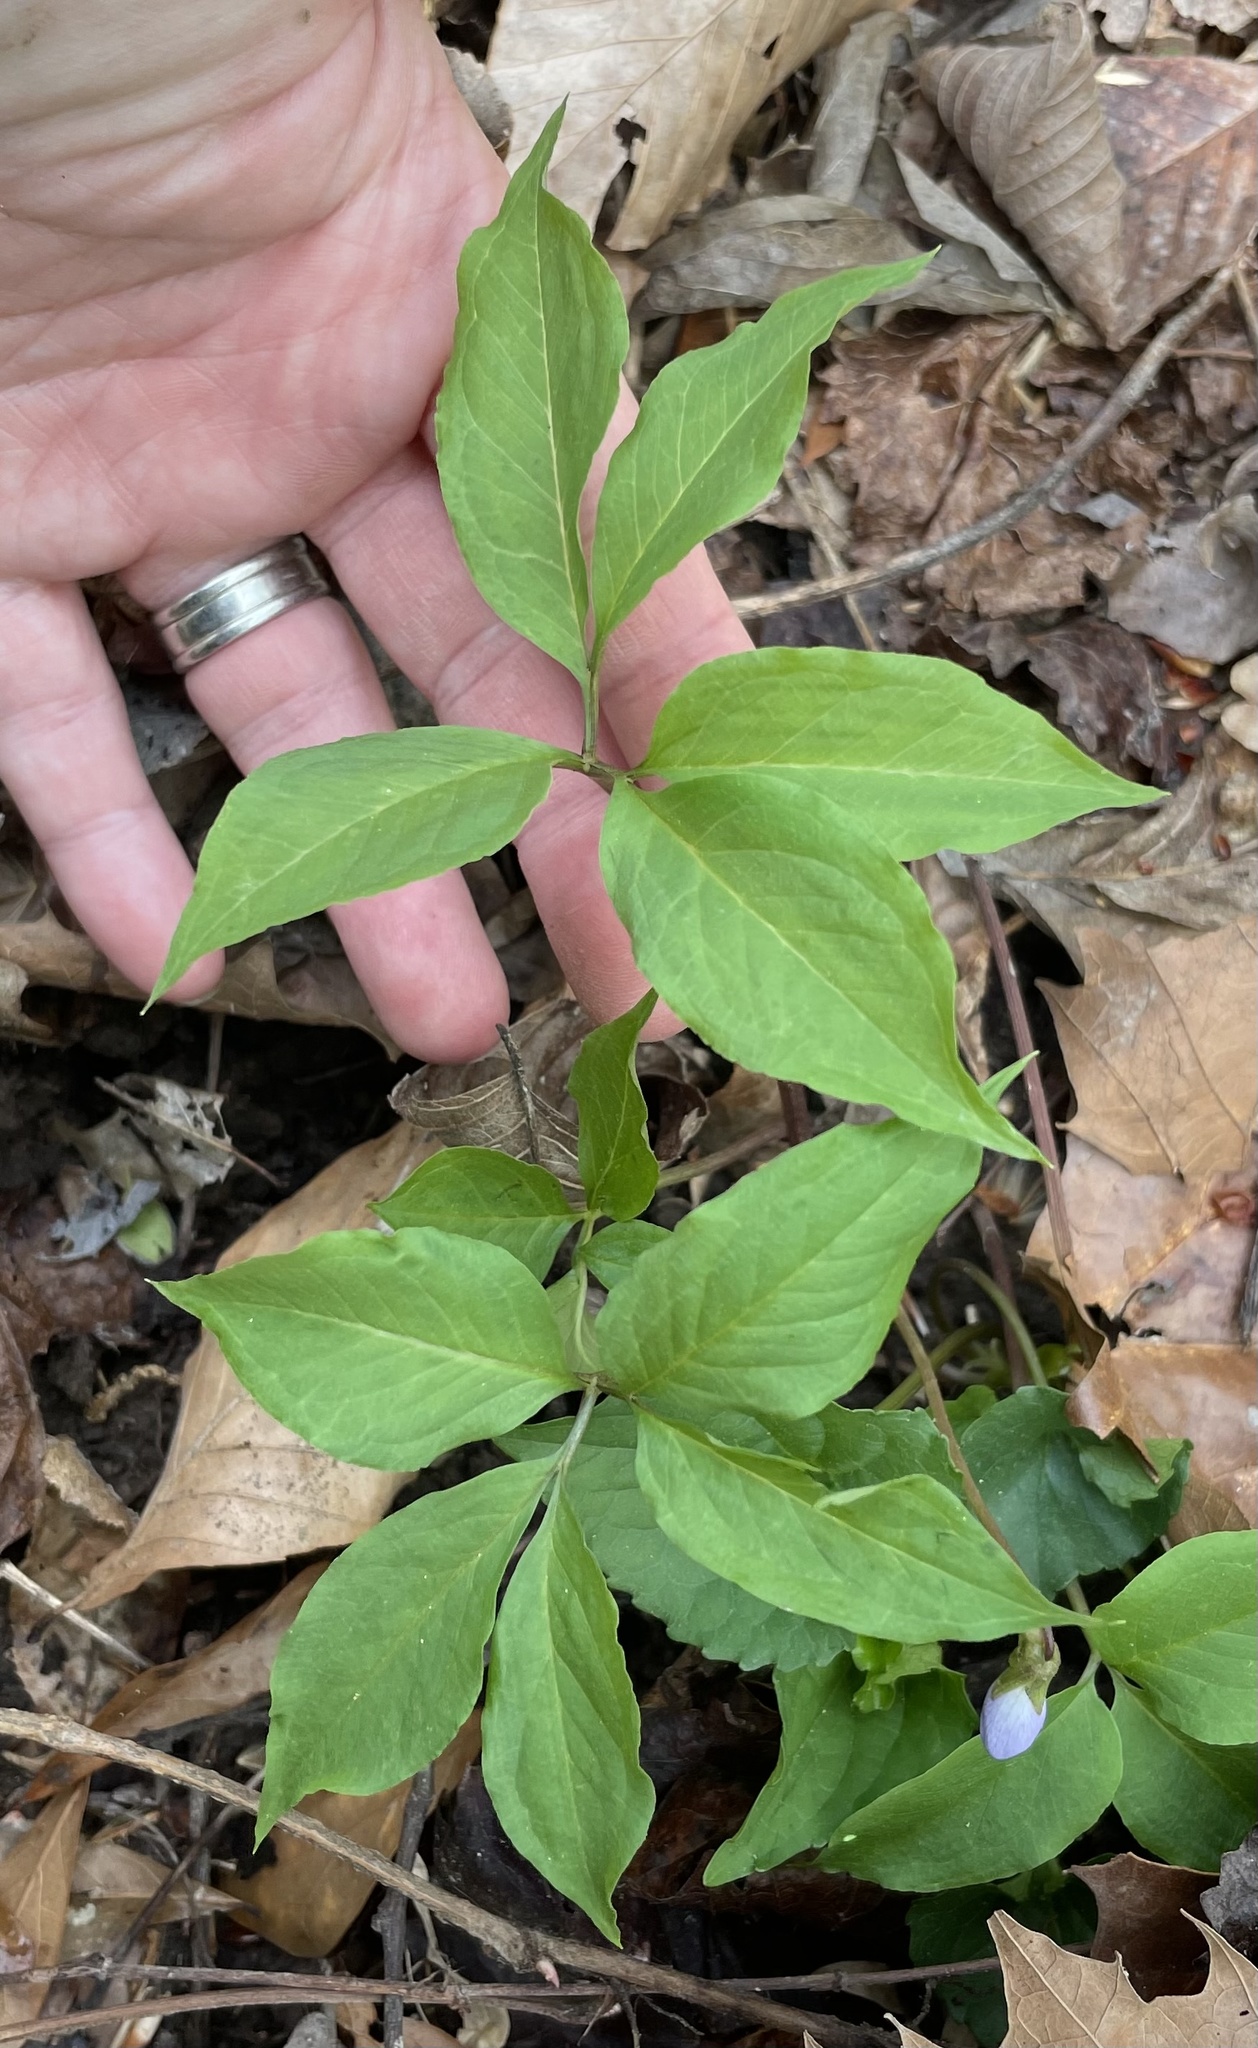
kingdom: Plantae
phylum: Tracheophyta
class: Liliopsida
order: Alismatales
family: Araceae
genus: Arisaema
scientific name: Arisaema dracontium
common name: Dragon-arum
